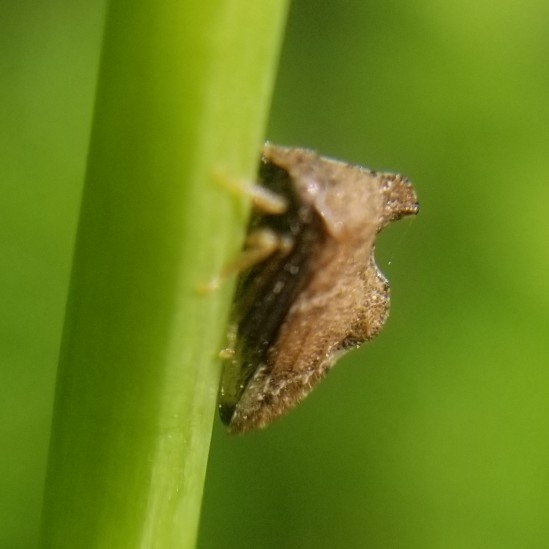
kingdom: Animalia
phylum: Arthropoda
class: Insecta
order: Hemiptera
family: Membracidae
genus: Entylia
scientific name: Entylia carinata
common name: Keeled treehopper
